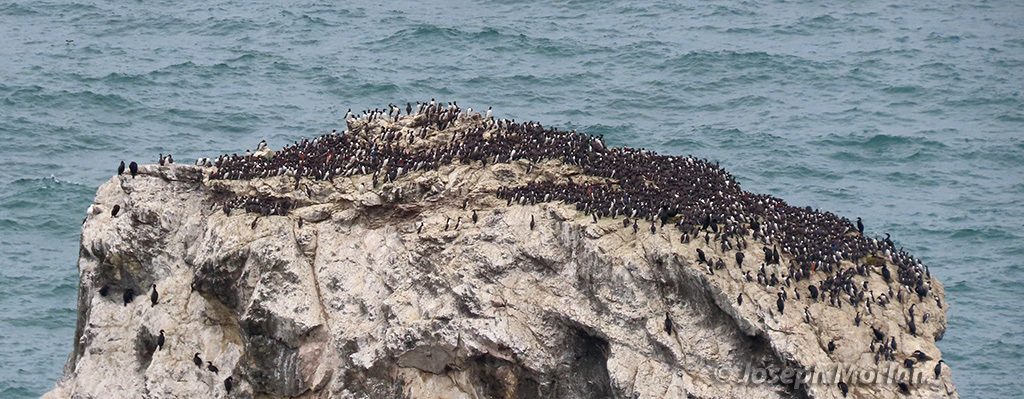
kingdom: Animalia
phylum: Chordata
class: Aves
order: Charadriiformes
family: Alcidae
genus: Uria
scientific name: Uria aalge
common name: Common murre
